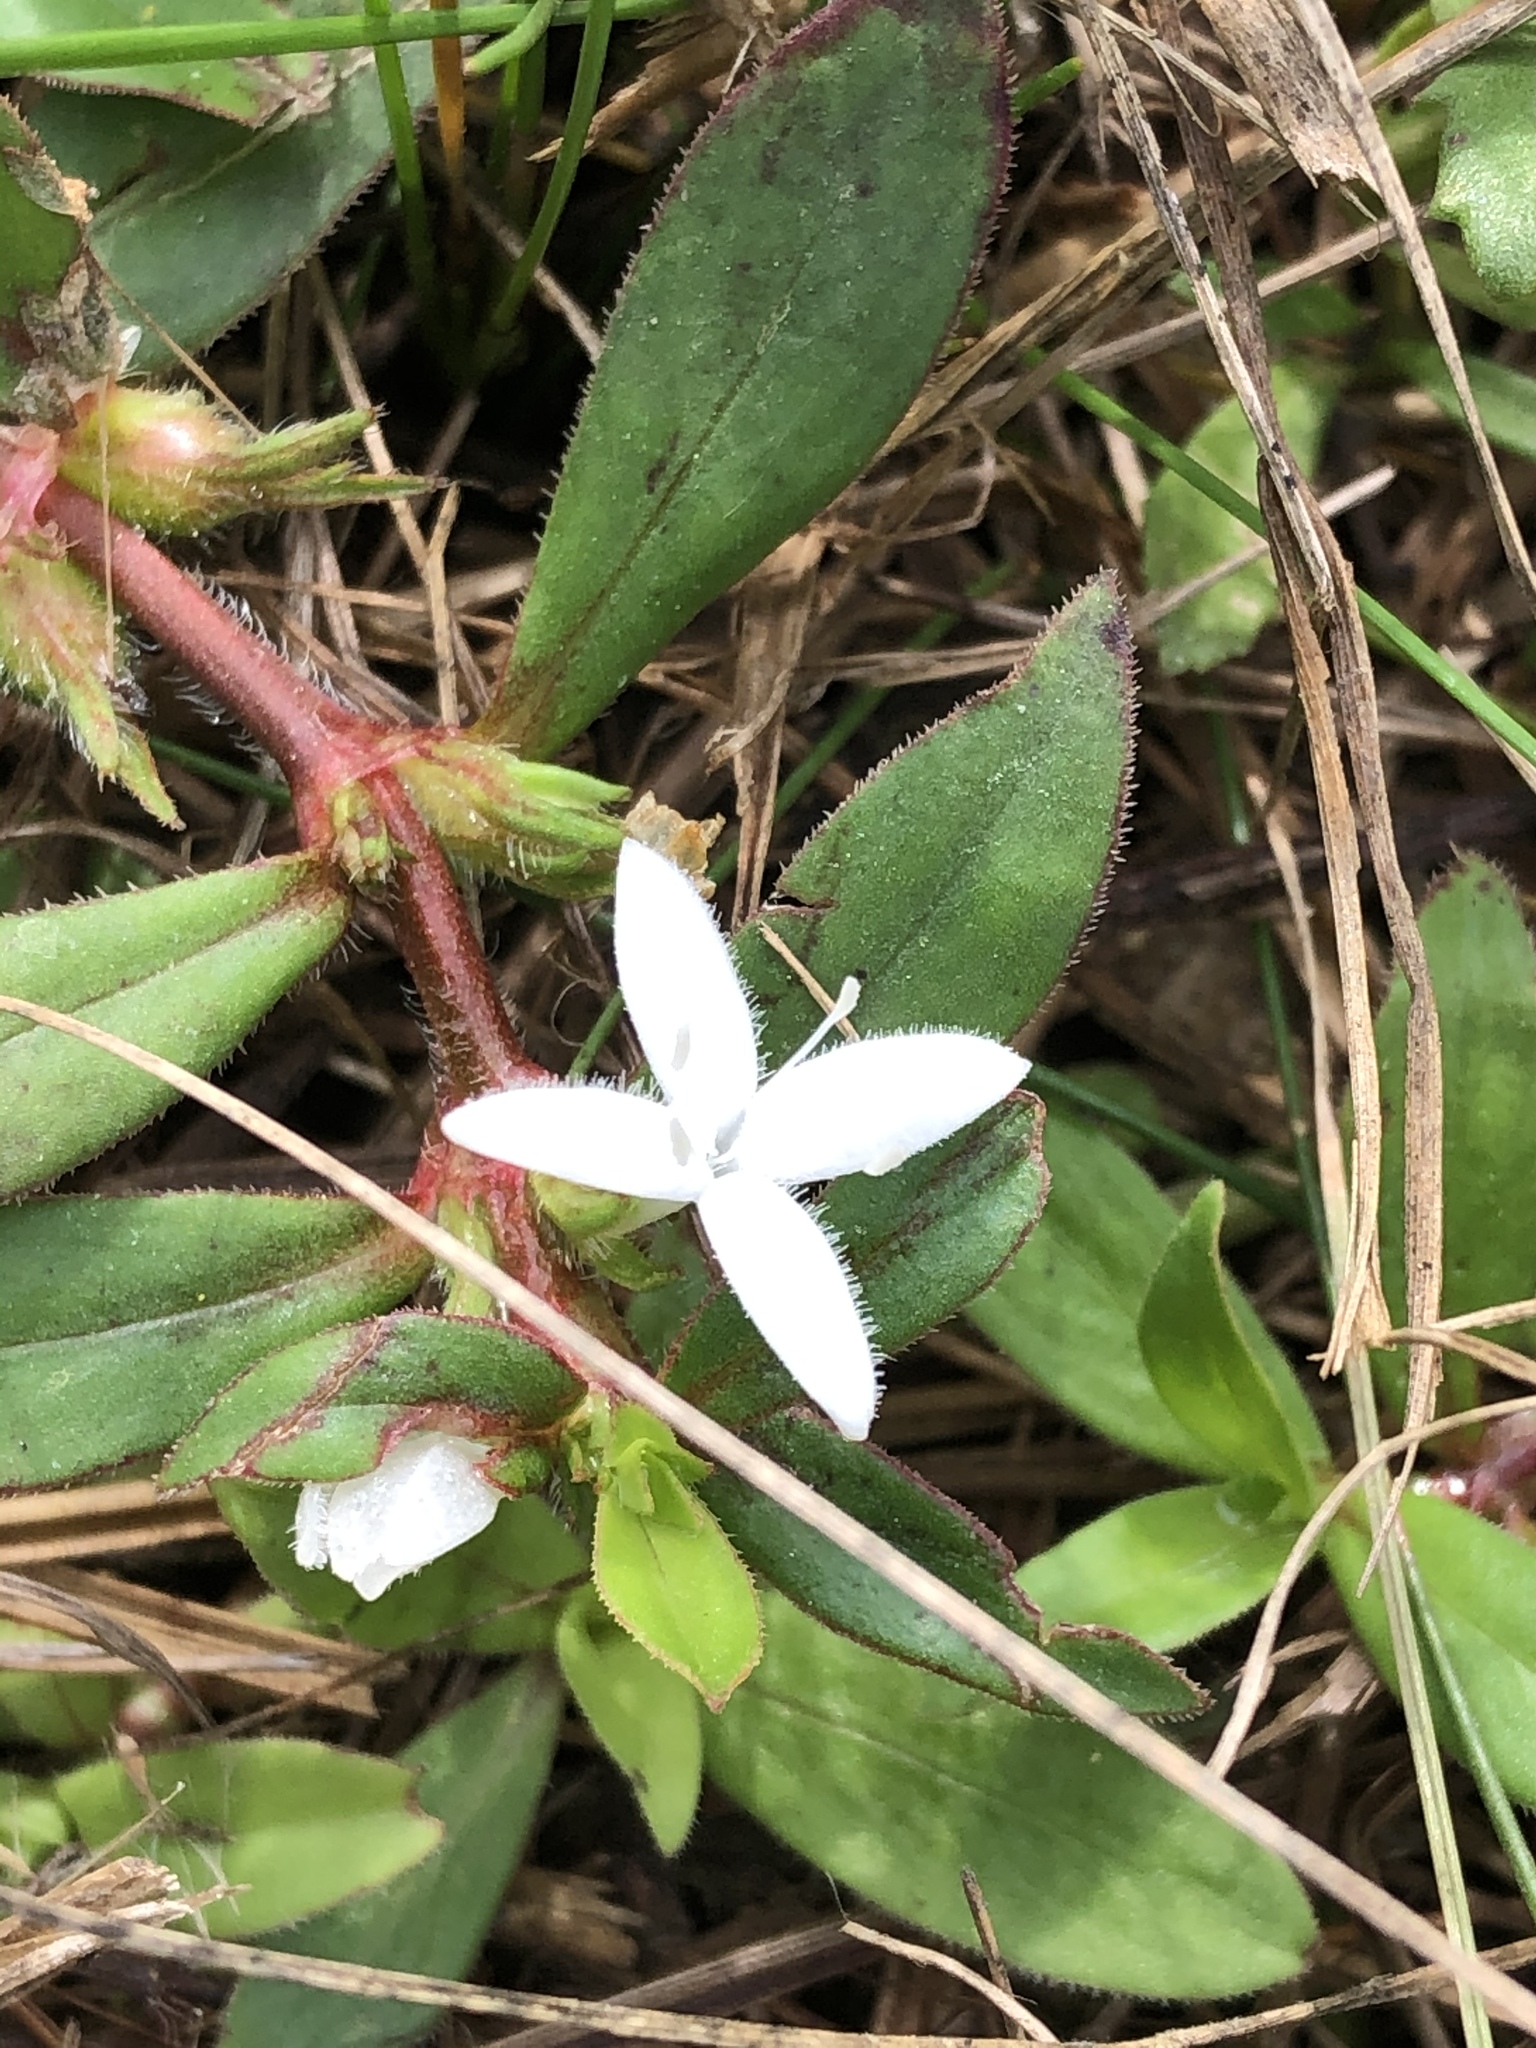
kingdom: Plantae
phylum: Tracheophyta
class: Magnoliopsida
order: Gentianales
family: Rubiaceae
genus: Diodia
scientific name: Diodia virginiana
